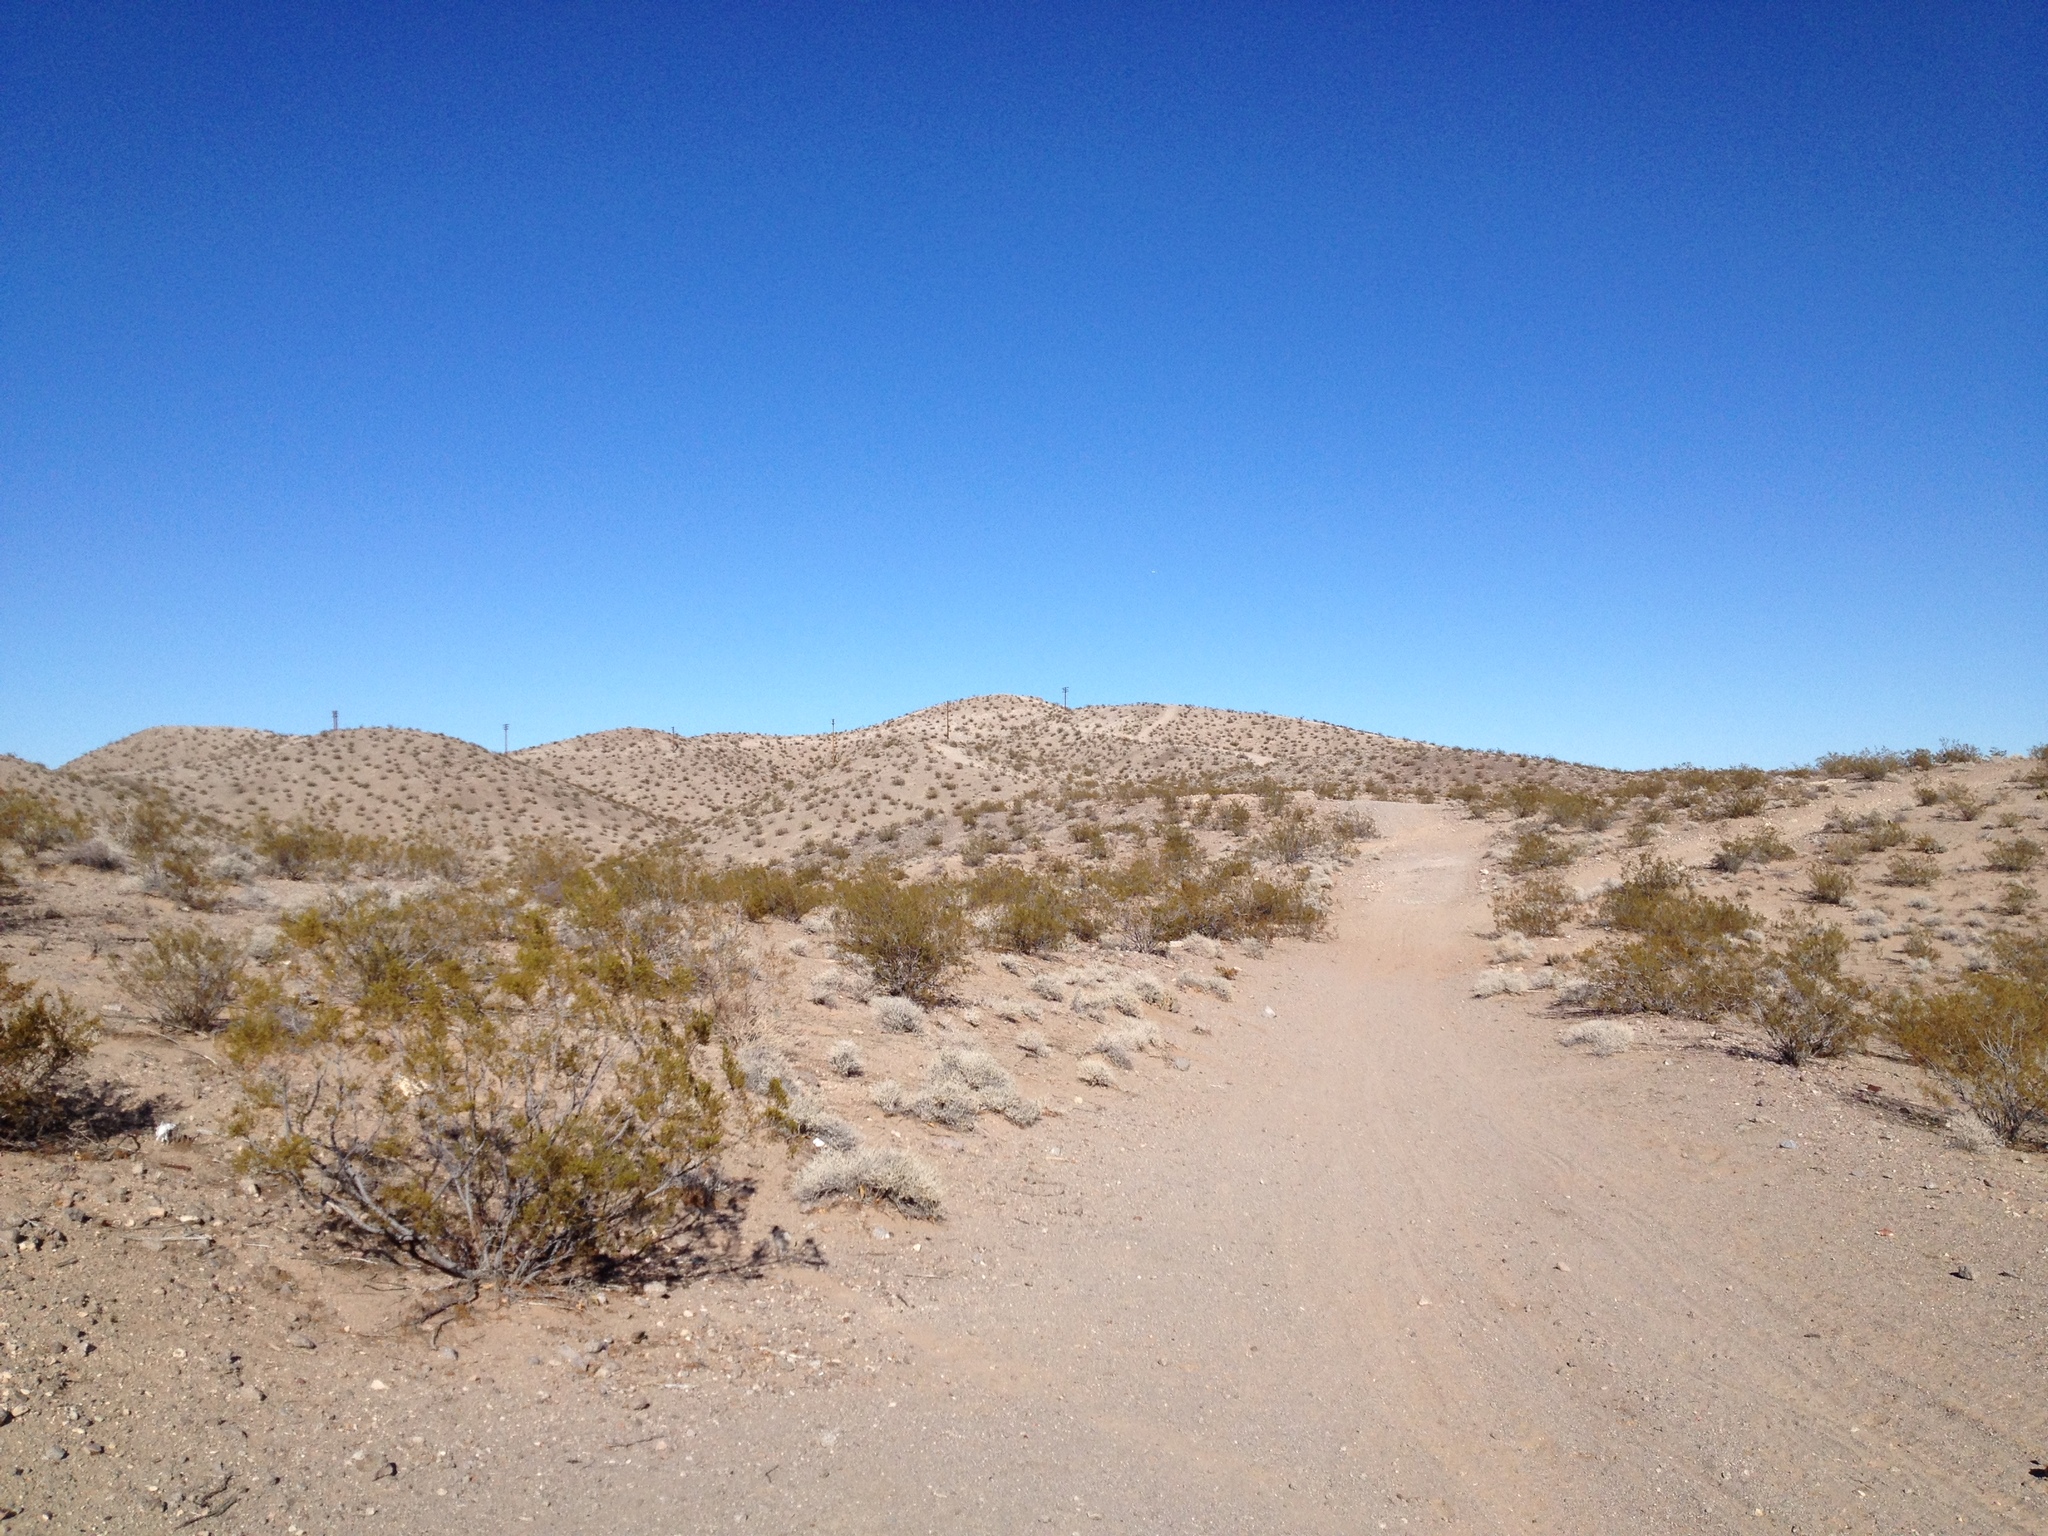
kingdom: Plantae
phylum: Tracheophyta
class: Magnoliopsida
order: Zygophyllales
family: Zygophyllaceae
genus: Larrea
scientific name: Larrea tridentata
